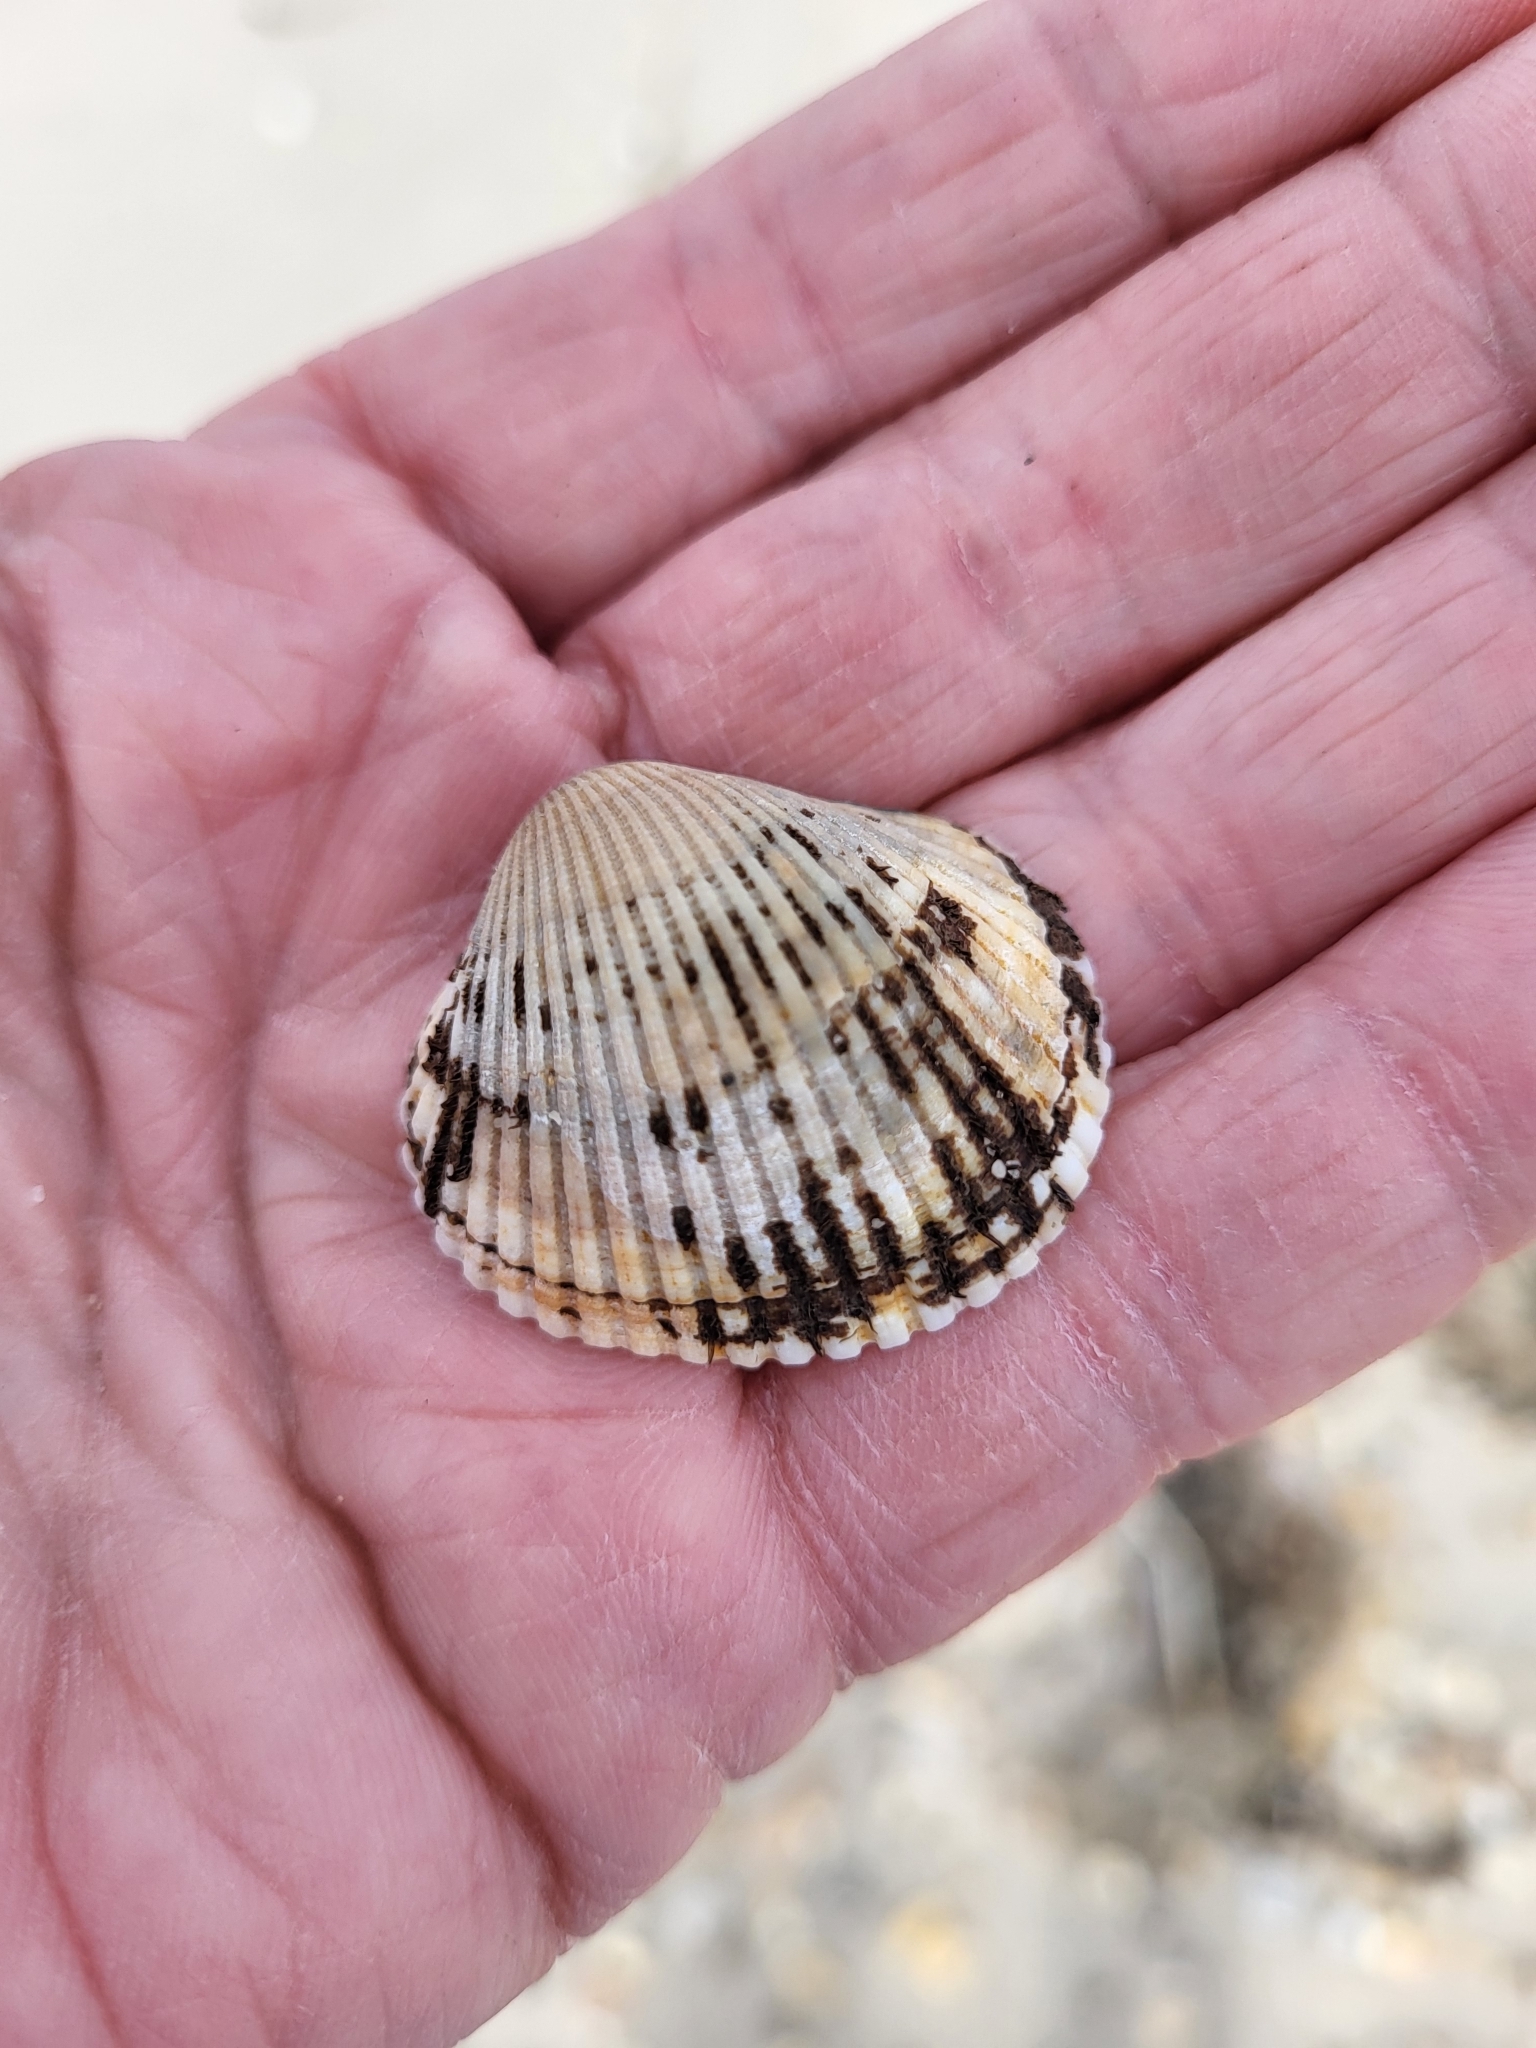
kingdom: Animalia
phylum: Mollusca
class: Bivalvia
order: Arcida
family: Arcidae
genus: Lunarca
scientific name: Lunarca ovalis
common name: Blood ark
